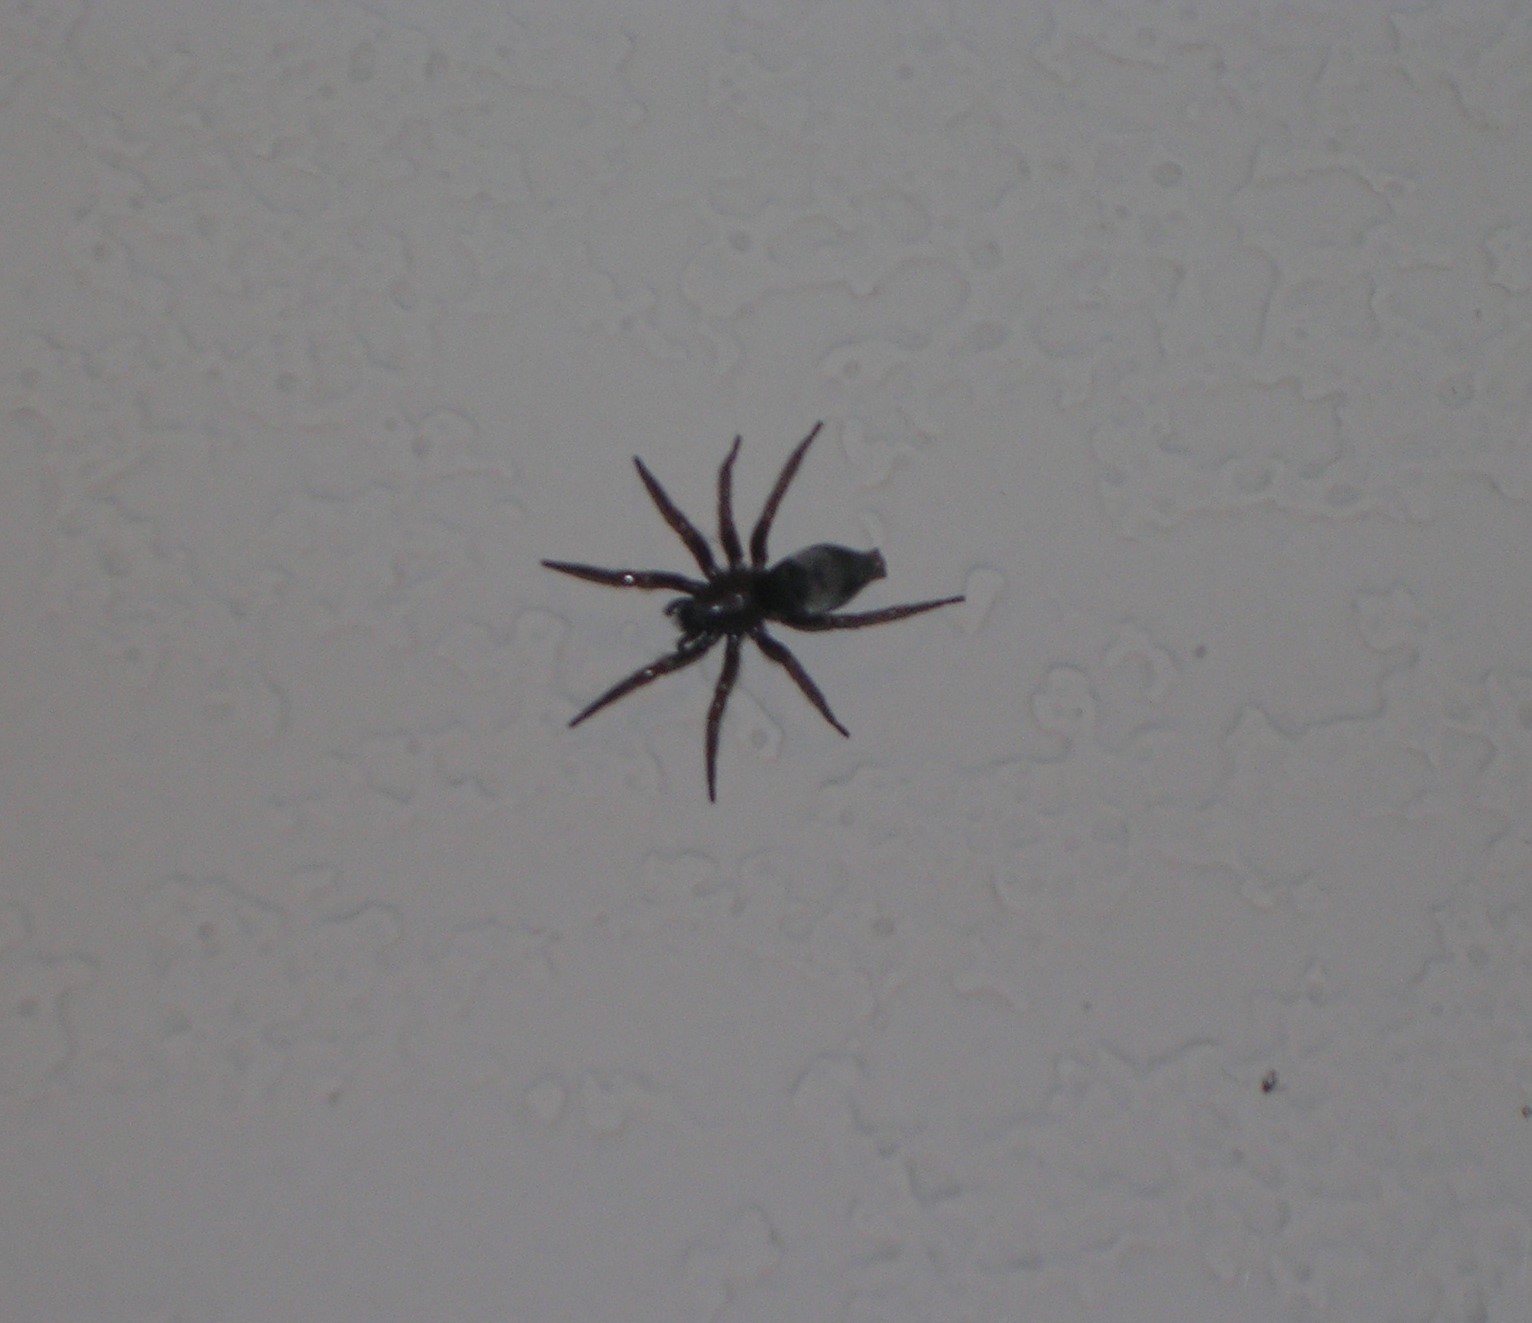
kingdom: Animalia
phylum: Arthropoda
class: Arachnida
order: Araneae
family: Agelenidae
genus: Eratigena
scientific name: Eratigena duellica
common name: Giant house spider
